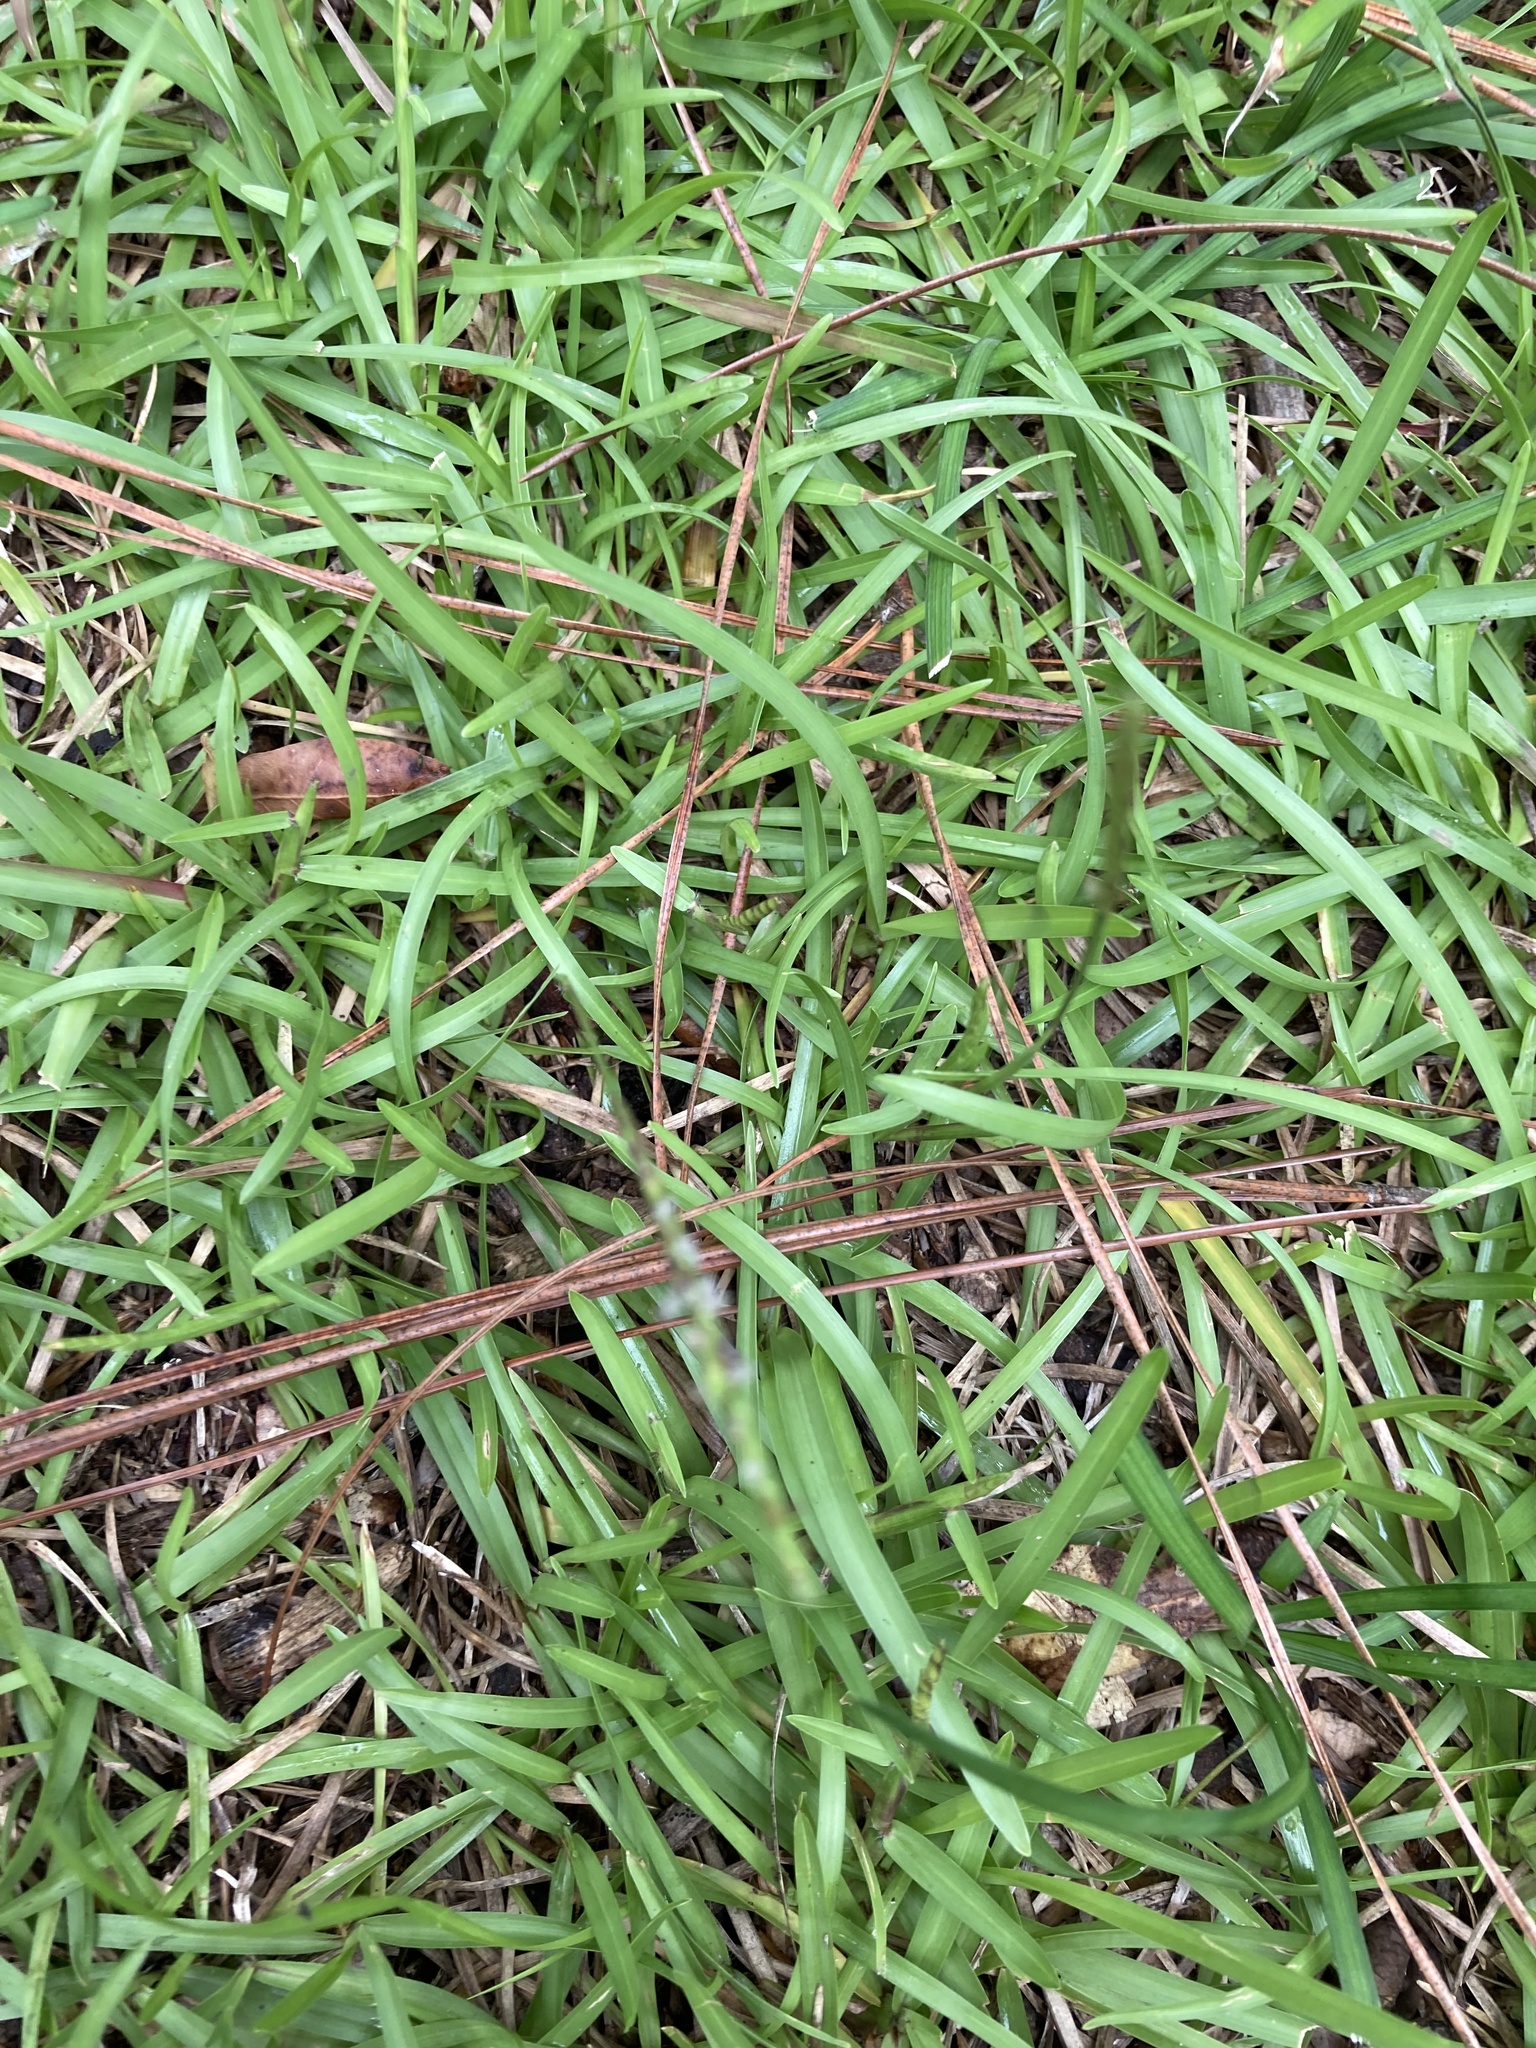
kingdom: Plantae
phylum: Tracheophyta
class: Liliopsida
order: Poales
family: Poaceae
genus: Eremochloa
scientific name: Eremochloa ophiuroides
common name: Centipede grass
